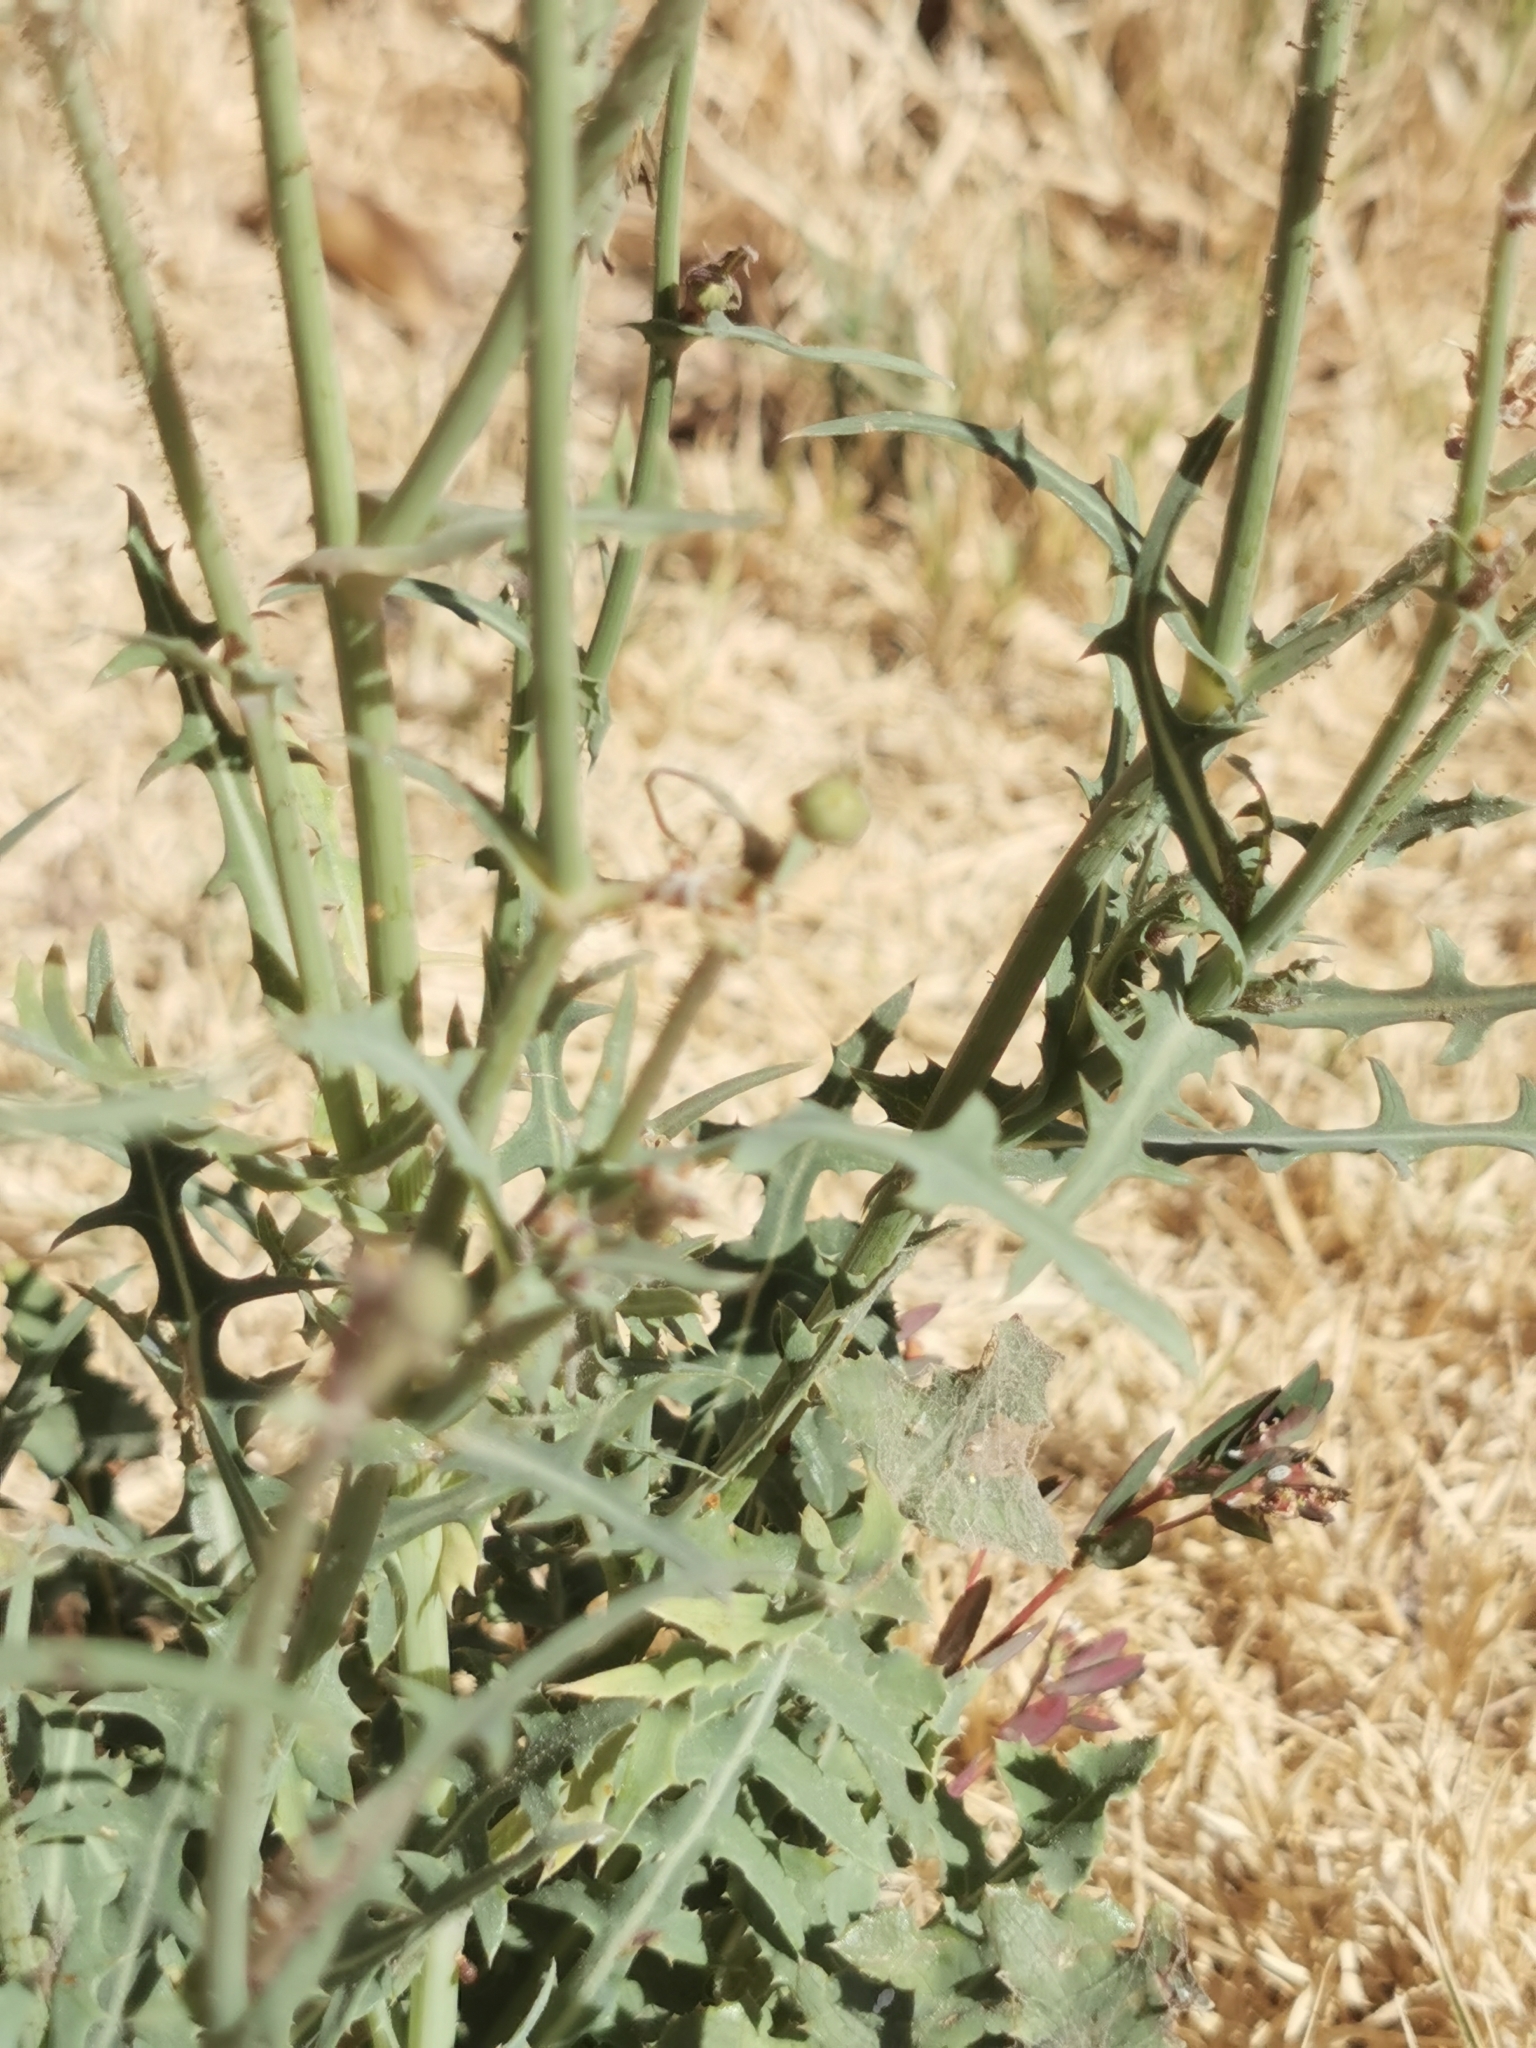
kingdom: Plantae
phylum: Tracheophyta
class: Magnoliopsida
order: Asterales
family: Asteraceae
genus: Sonchus
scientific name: Sonchus oleraceus
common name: Common sowthistle
